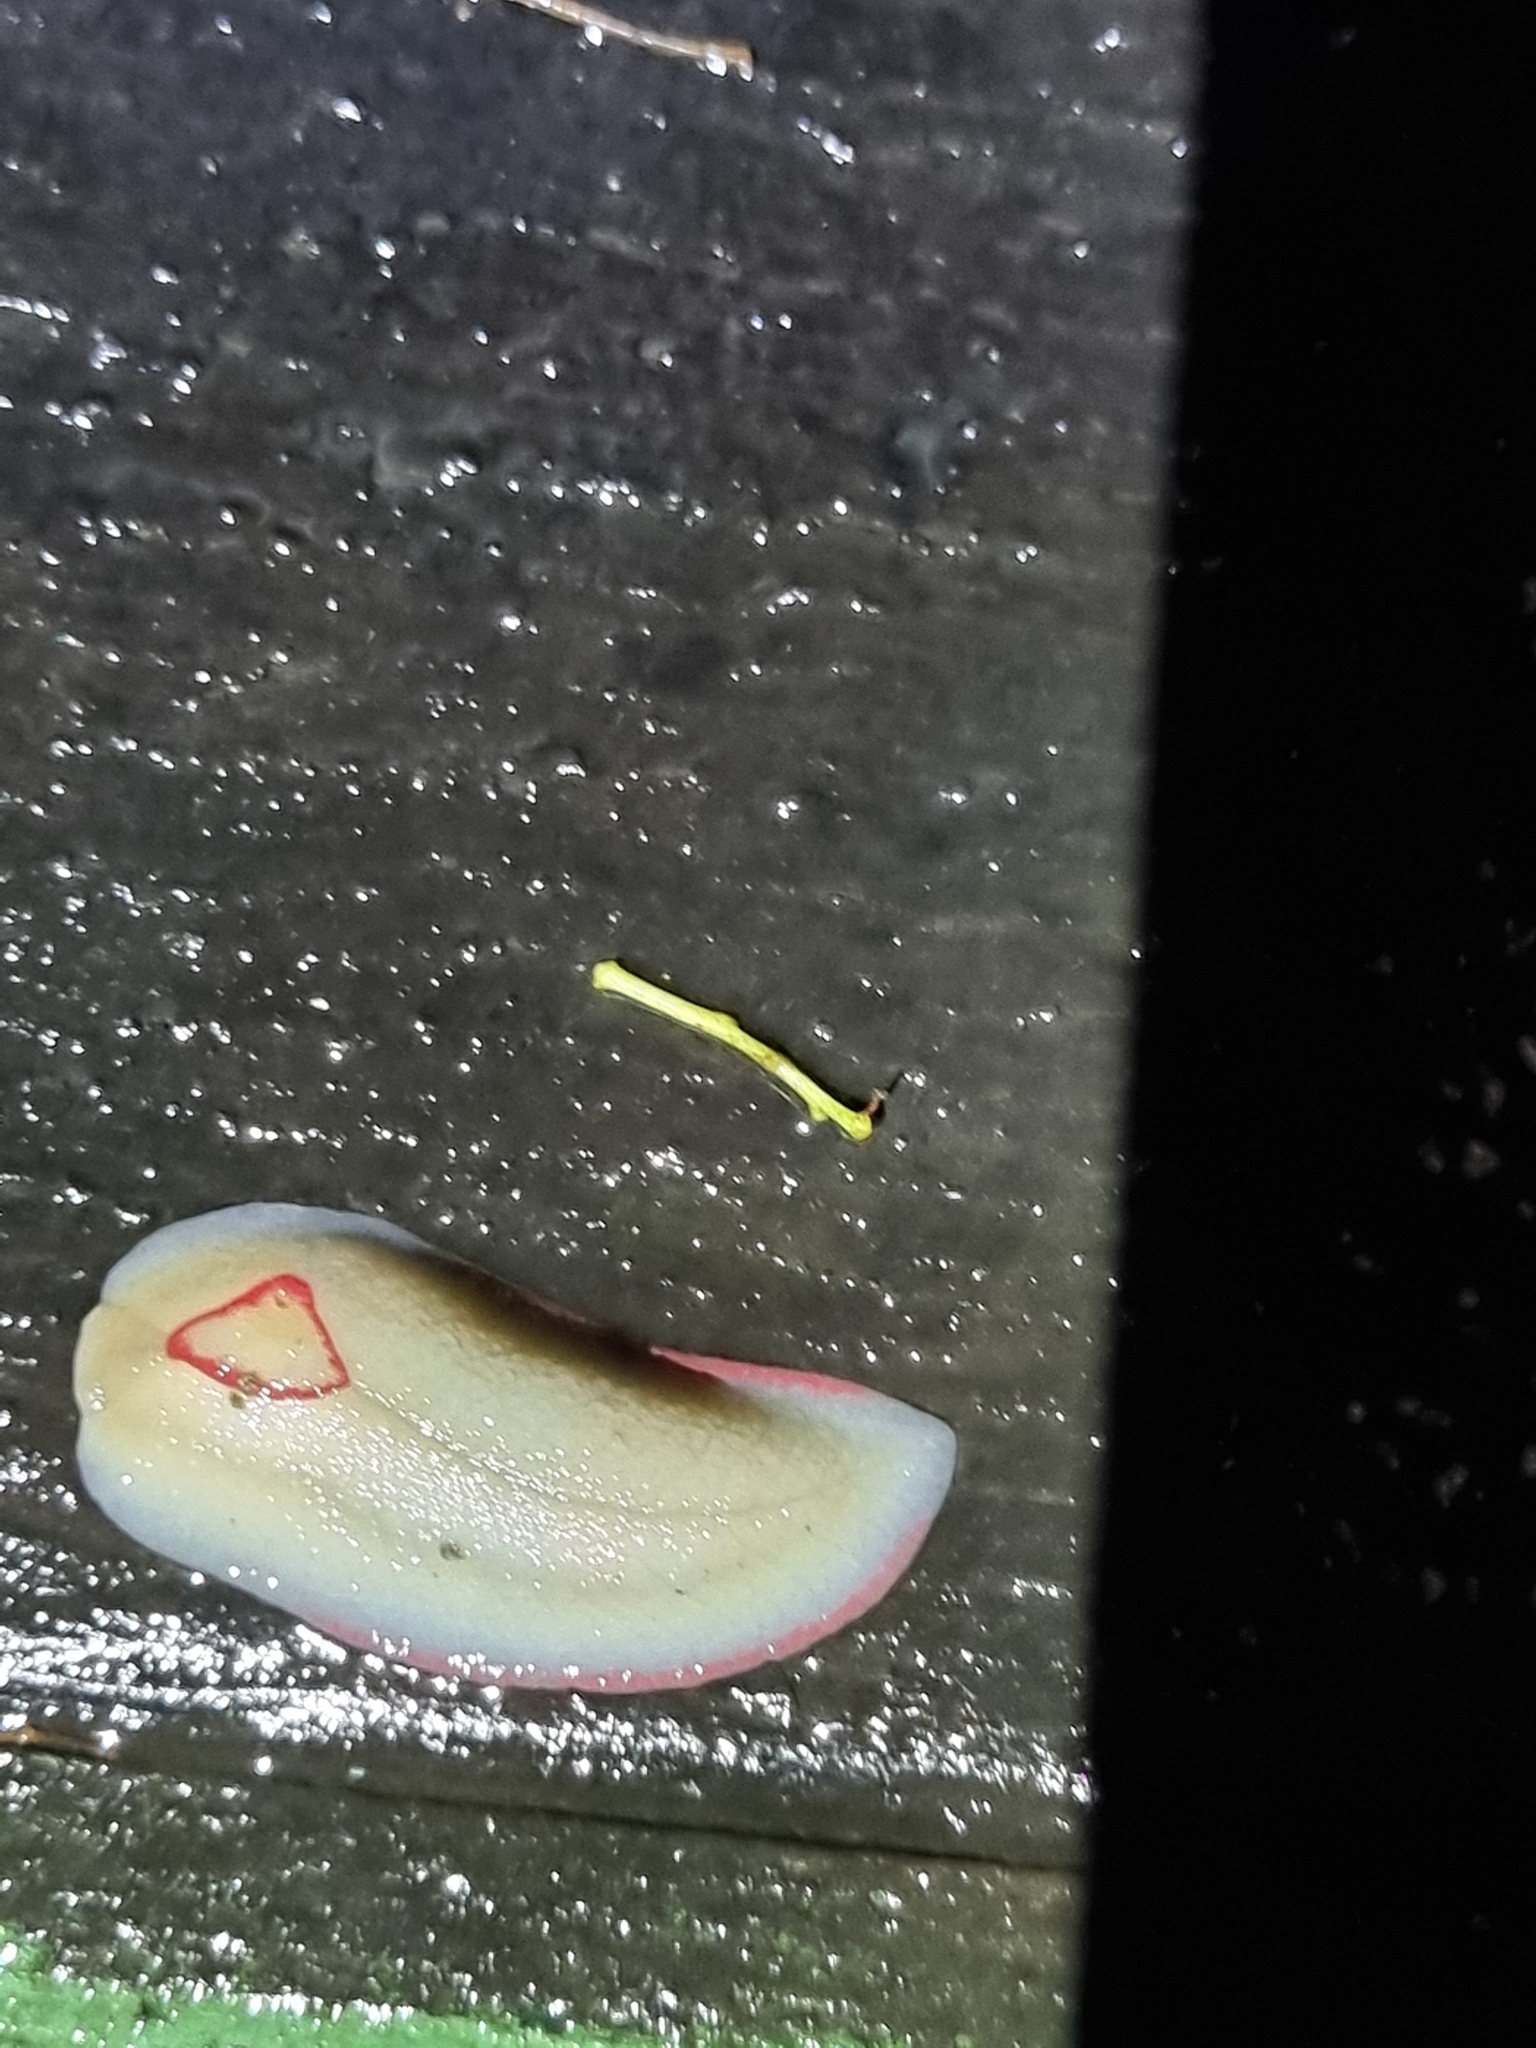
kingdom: Animalia
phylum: Mollusca
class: Gastropoda
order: Stylommatophora
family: Athoracophoridae
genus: Triboniophorus
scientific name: Triboniophorus graeffei
